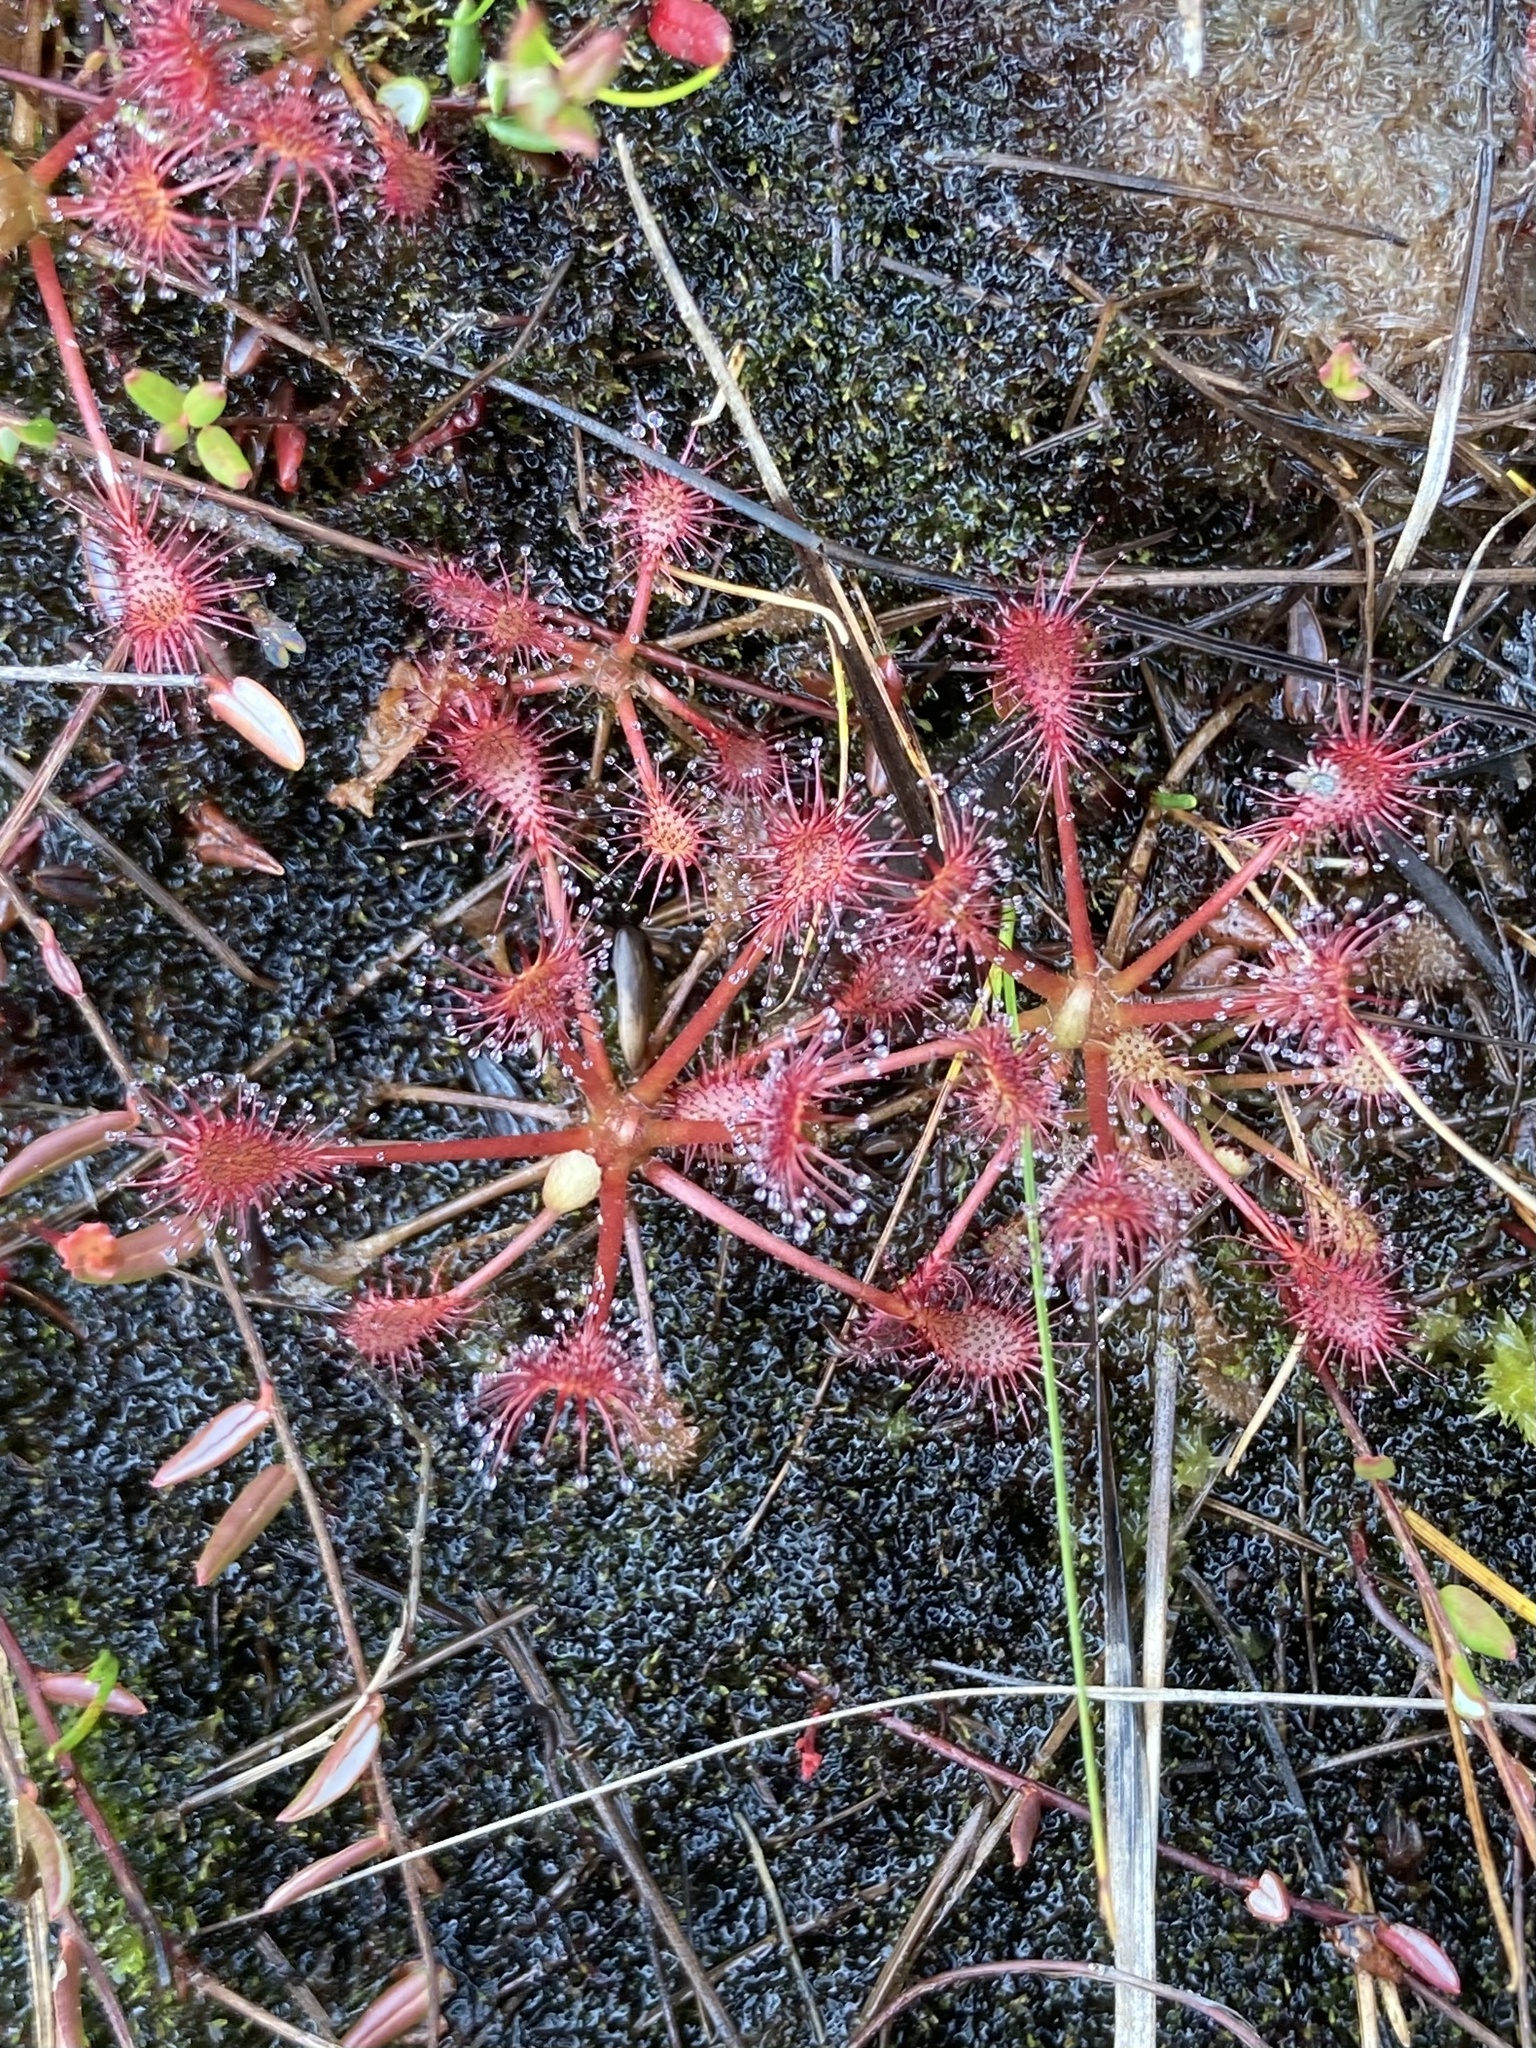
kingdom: Plantae
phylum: Tracheophyta
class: Magnoliopsida
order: Caryophyllales
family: Droseraceae
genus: Drosera
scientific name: Drosera intermedia
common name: Oblong-leaved sundew
